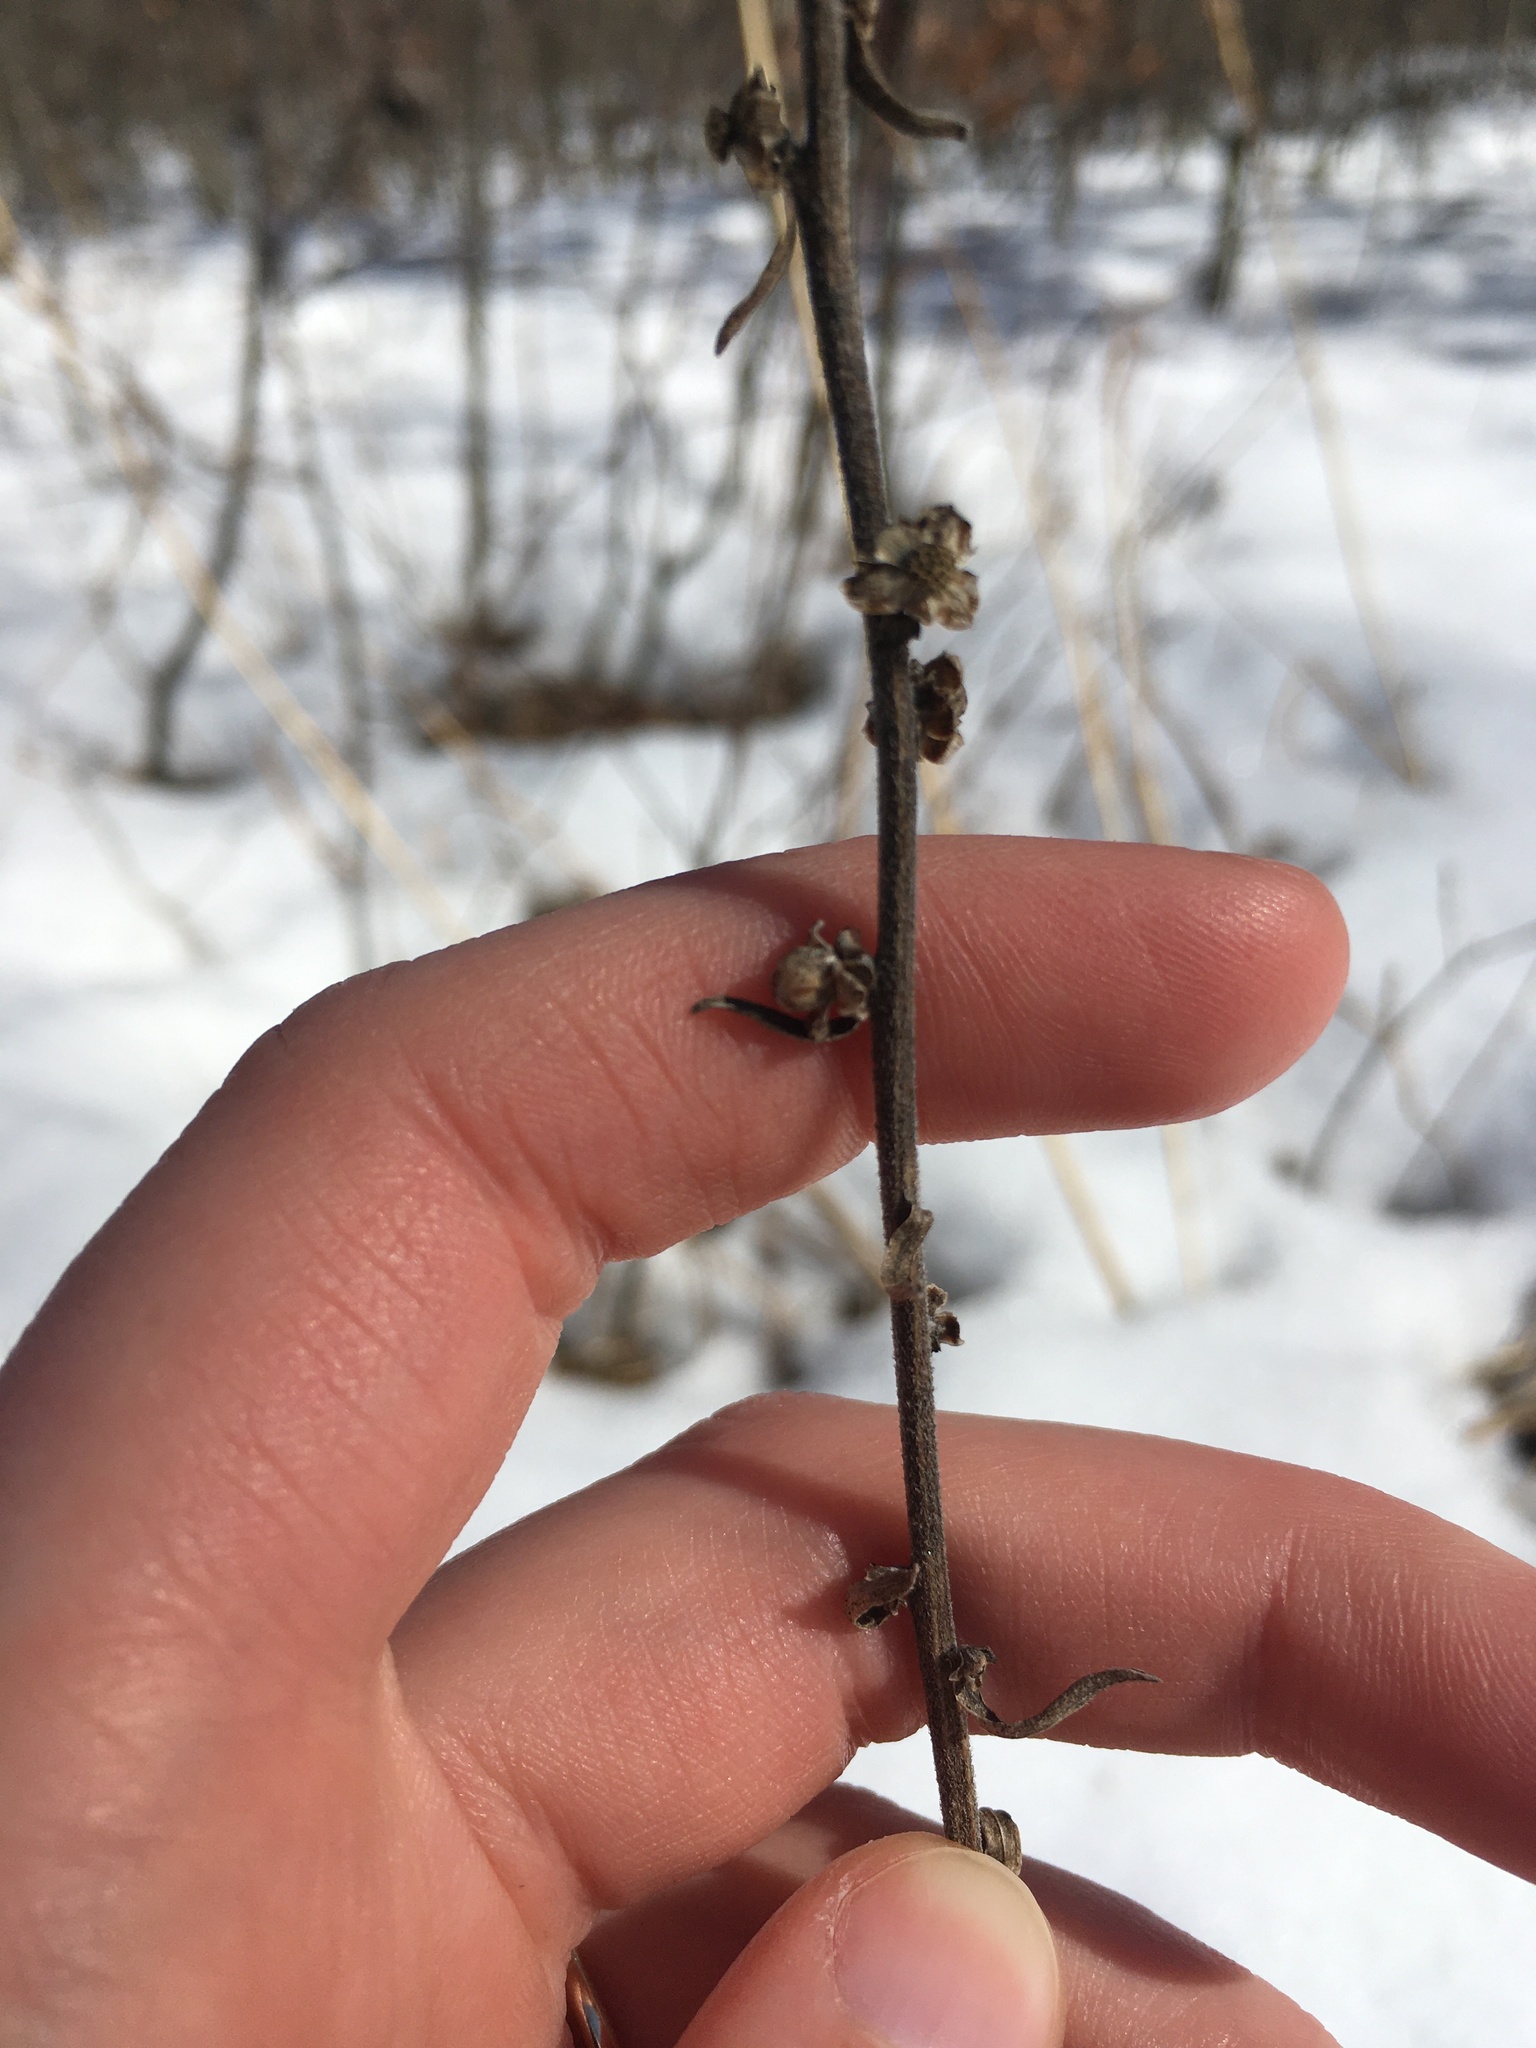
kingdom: Plantae
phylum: Tracheophyta
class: Magnoliopsida
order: Asterales
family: Asteraceae
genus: Liatris
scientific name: Liatris aspera
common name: Lacerate blazing-star
